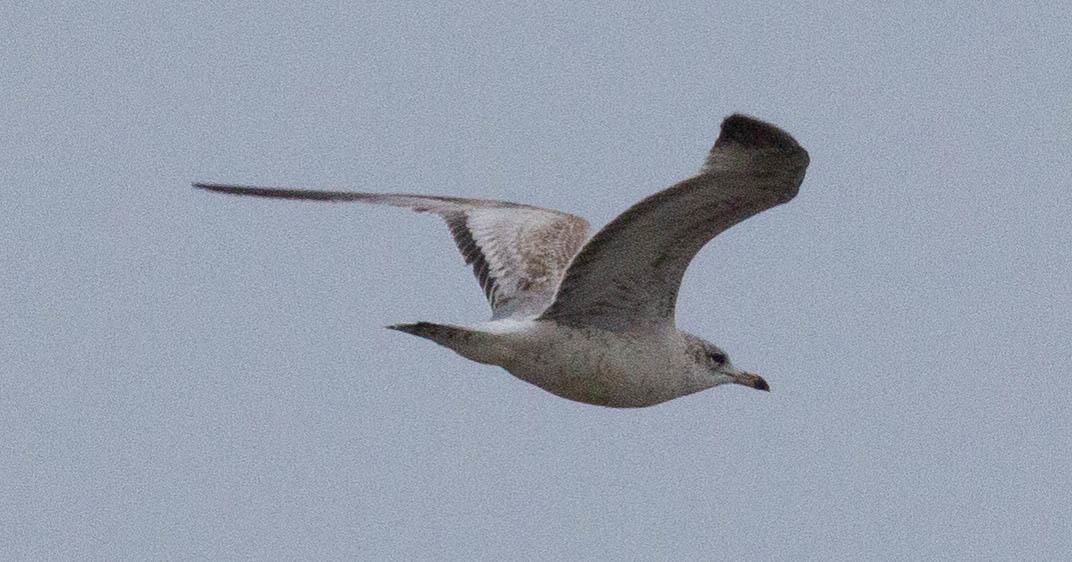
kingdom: Animalia
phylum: Chordata
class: Aves
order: Charadriiformes
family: Laridae
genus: Larus
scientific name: Larus delawarensis
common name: Ring-billed gull
